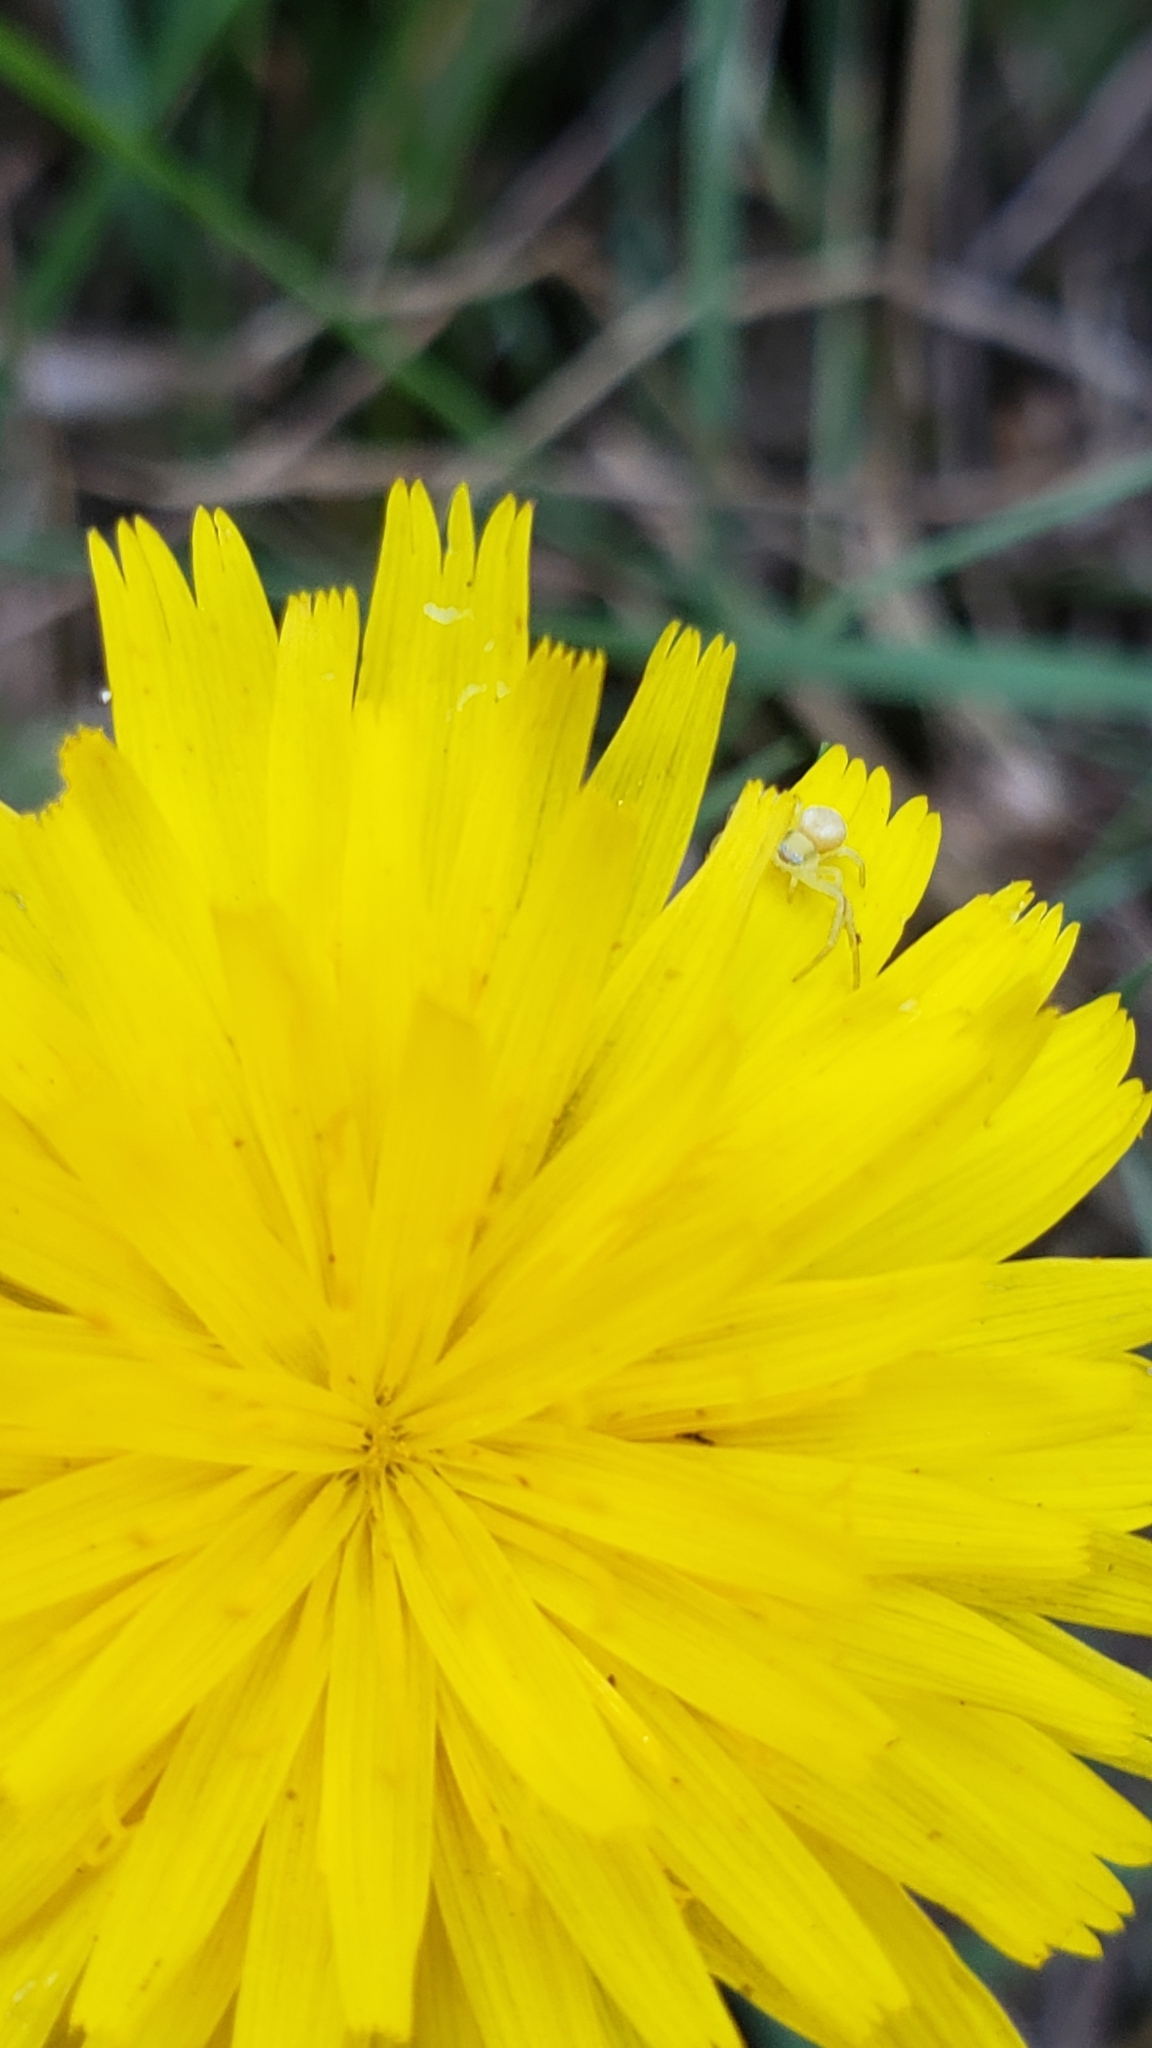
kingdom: Animalia
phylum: Arthropoda
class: Arachnida
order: Araneae
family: Thomisidae
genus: Misumena
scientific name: Misumena vatia
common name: Goldenrod crab spider
